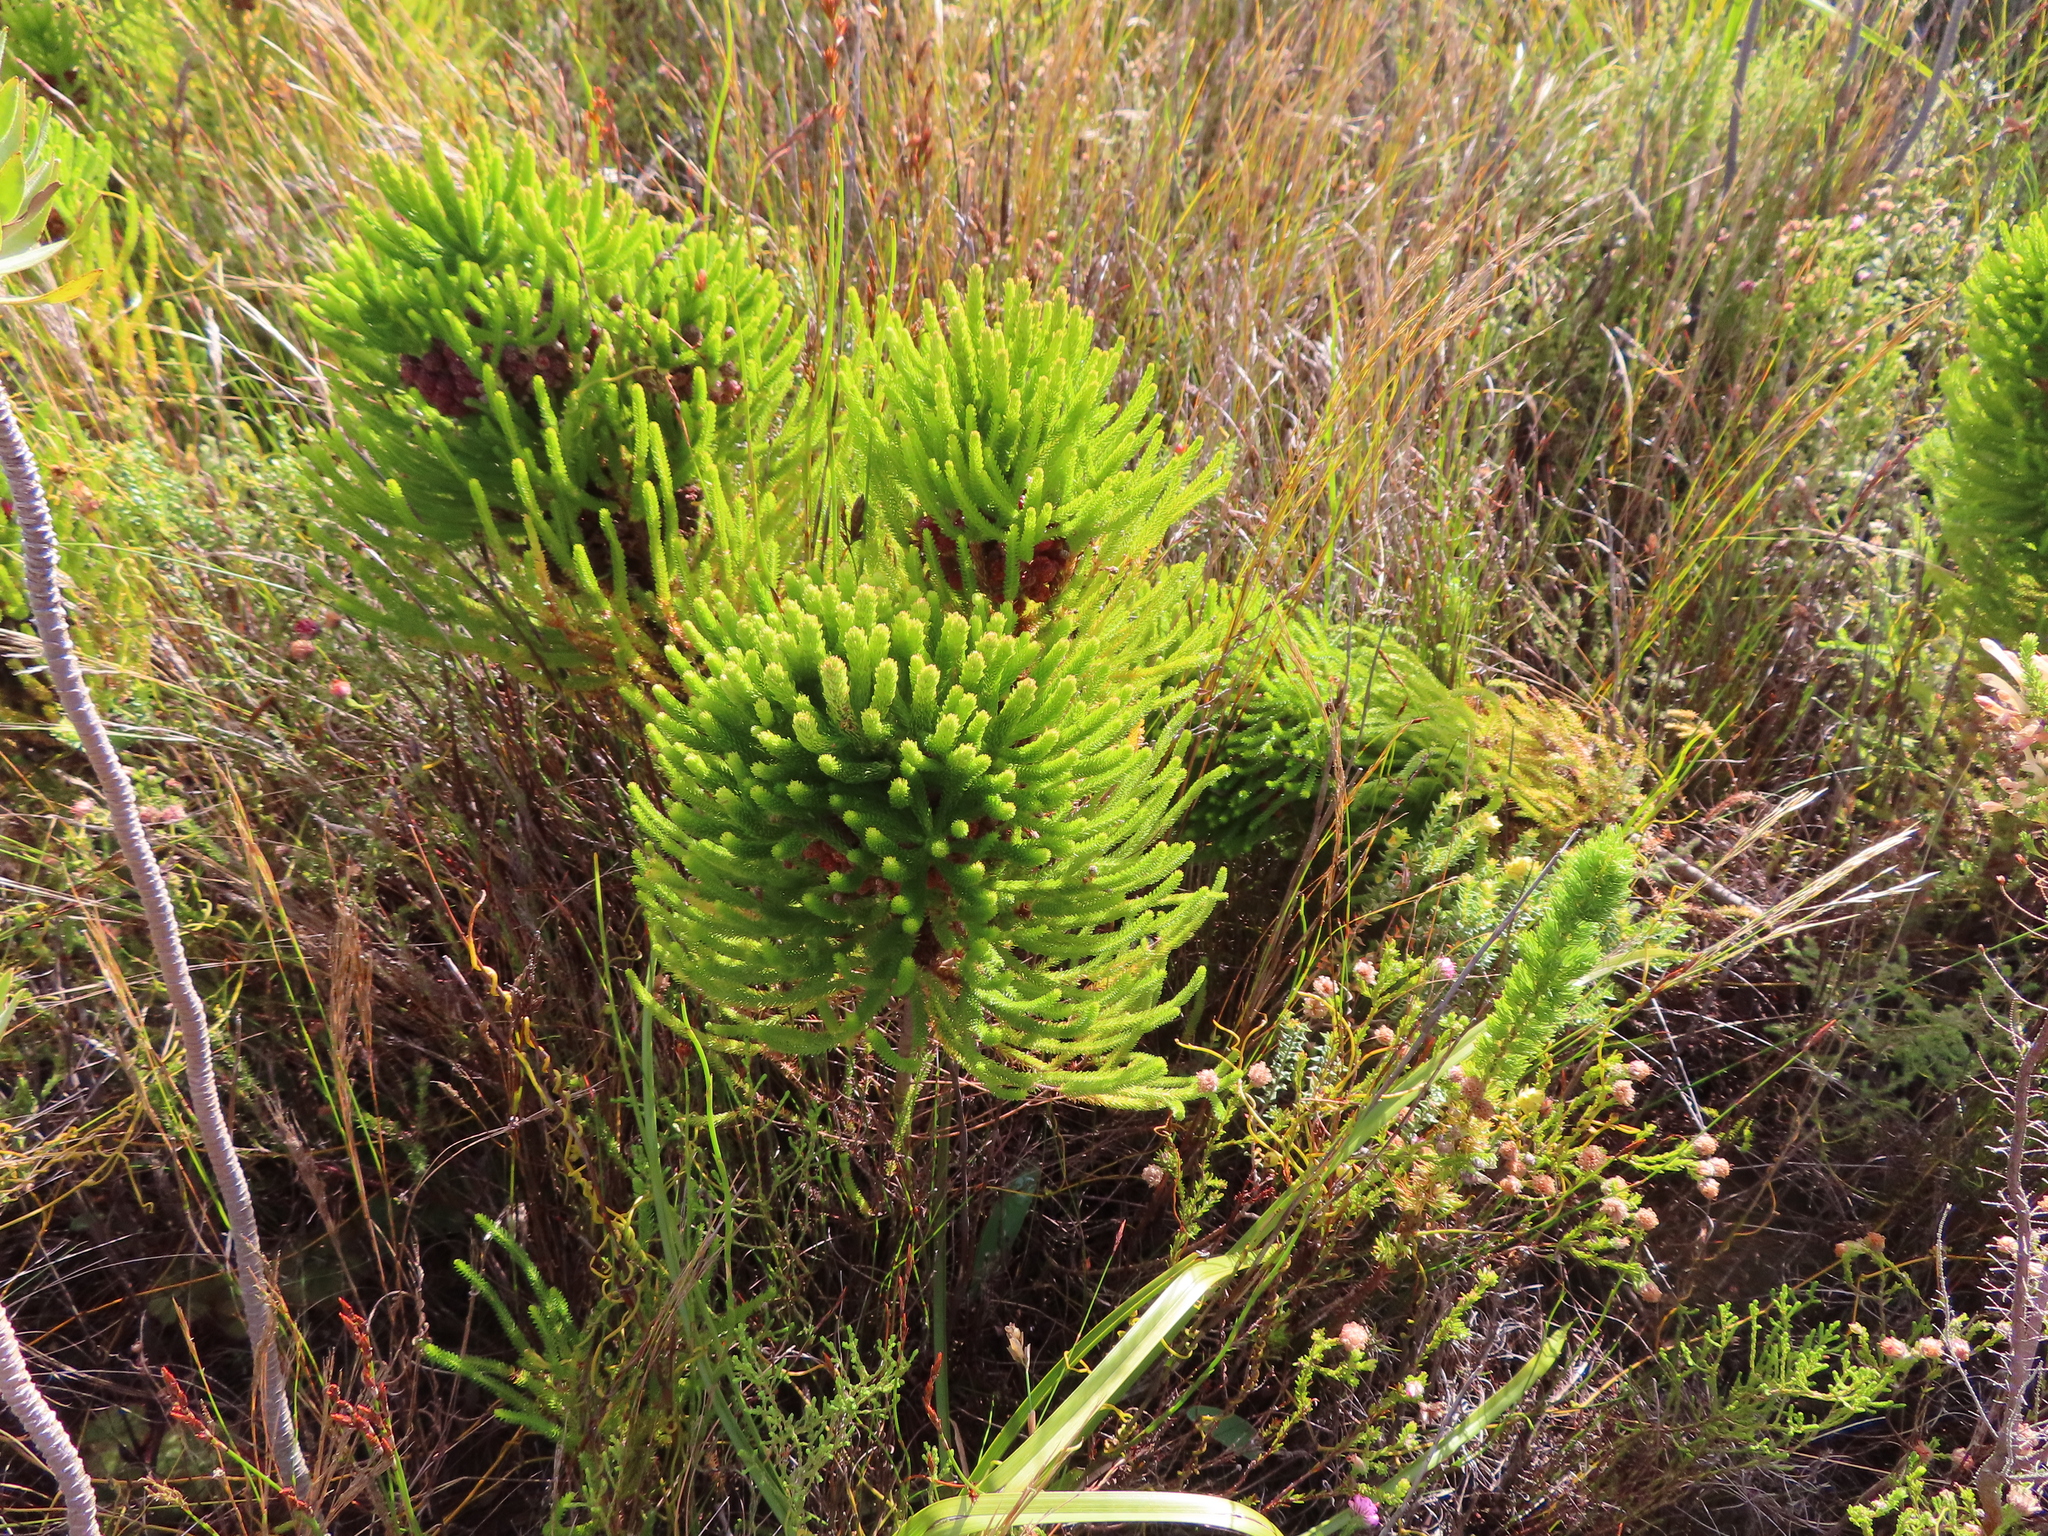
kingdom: Plantae
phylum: Tracheophyta
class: Magnoliopsida
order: Bruniales
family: Bruniaceae
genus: Berzelia
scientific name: Berzelia lanuginosa
